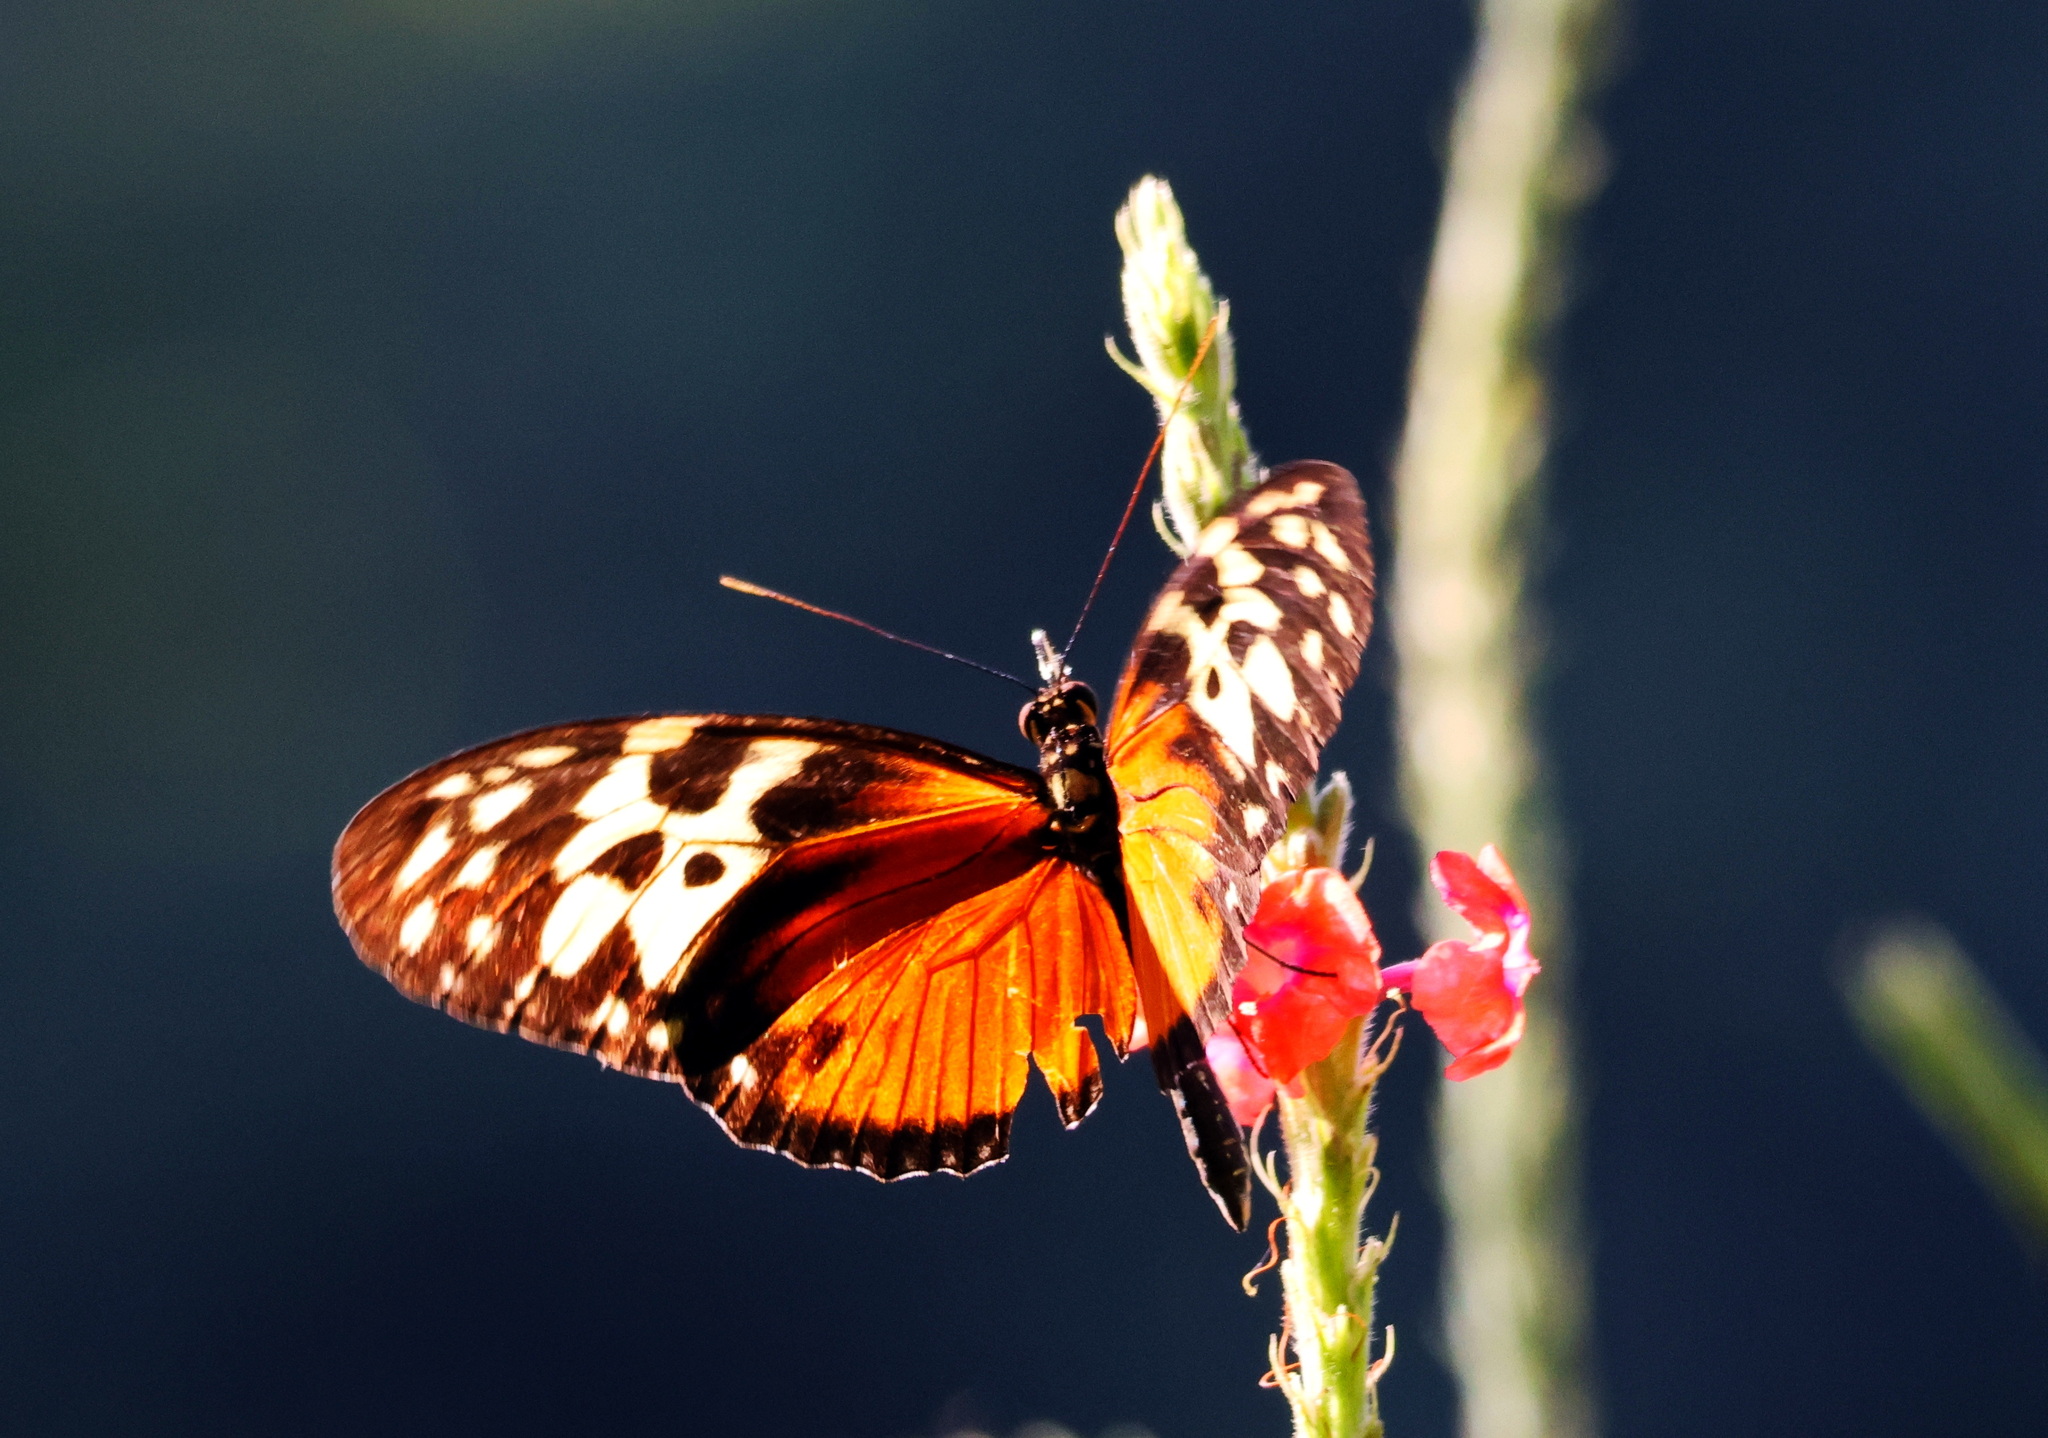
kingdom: Animalia
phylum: Arthropoda
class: Insecta
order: Lepidoptera
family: Nymphalidae
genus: Heliconius
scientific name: Heliconius hecale
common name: Tiger longwing
